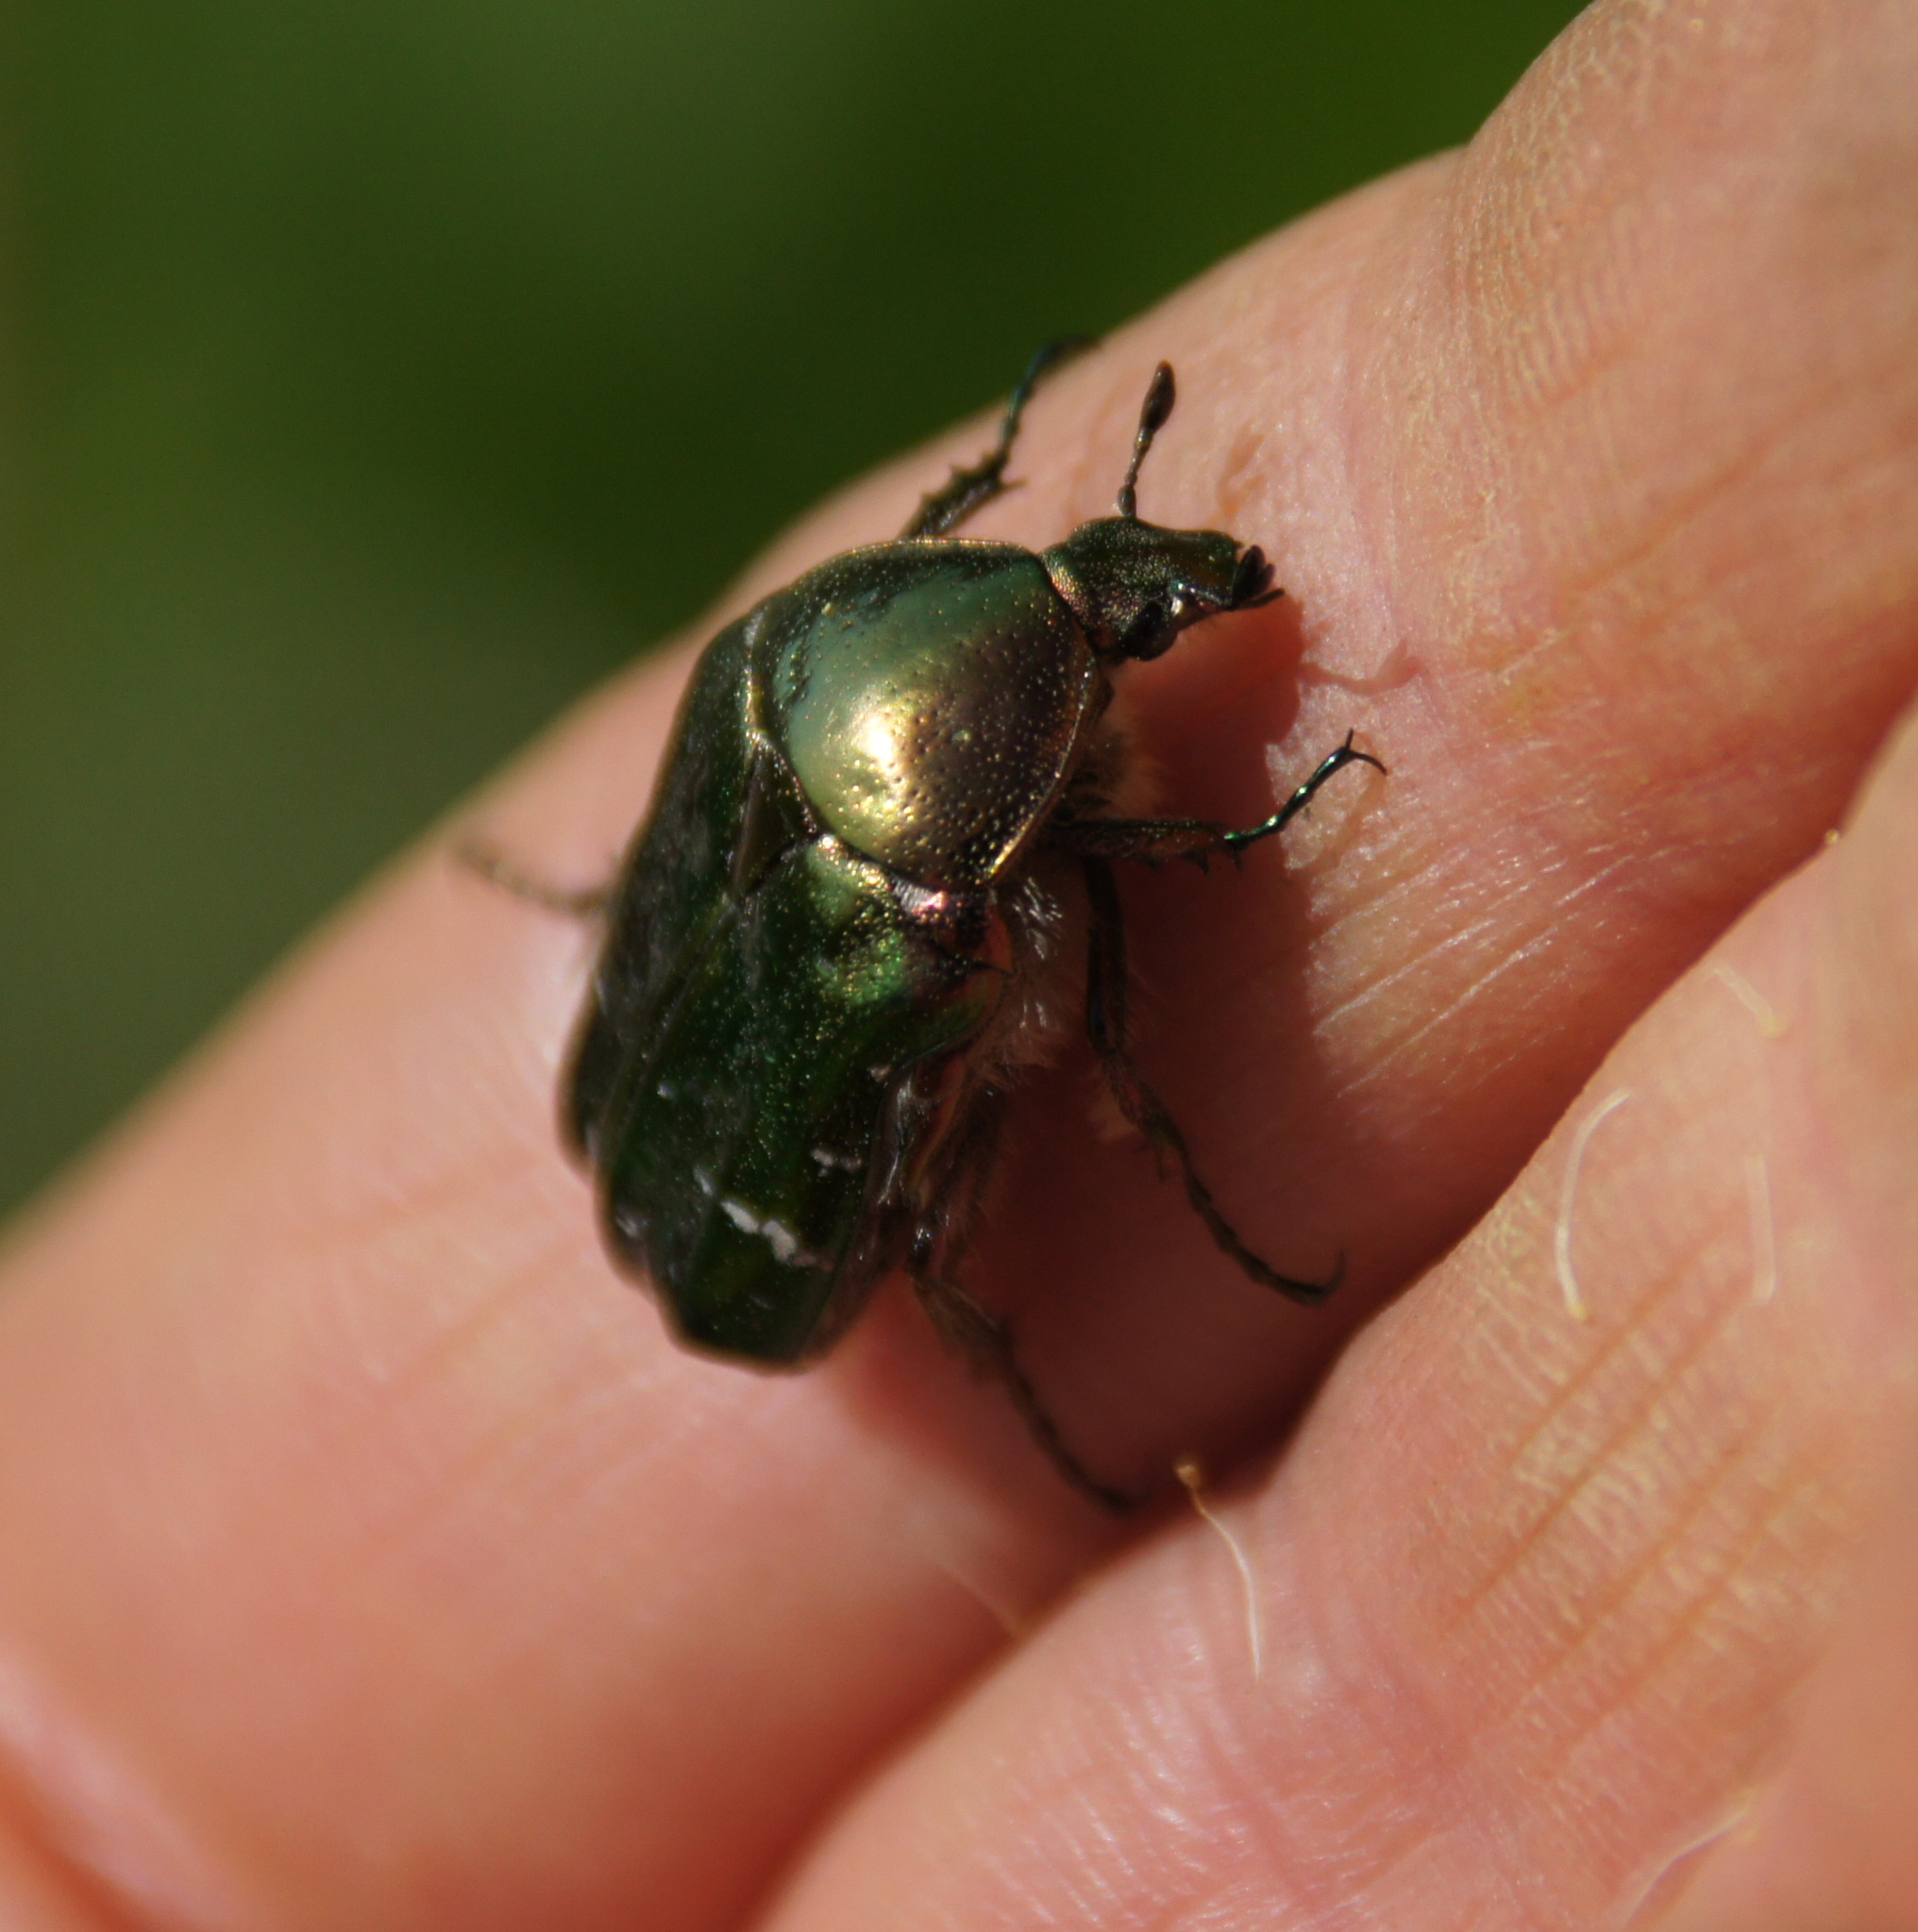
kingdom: Animalia
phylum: Arthropoda
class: Insecta
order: Coleoptera
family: Scarabaeidae
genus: Cetonia
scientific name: Cetonia aurata
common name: Rose chafer
